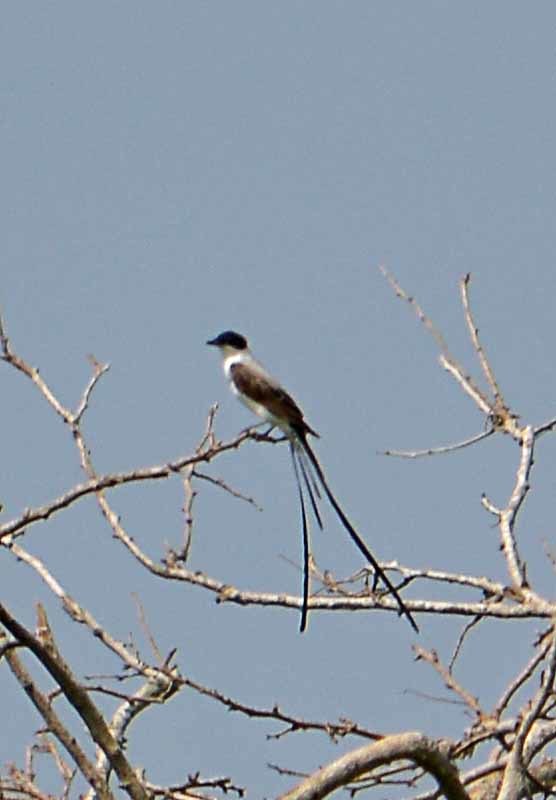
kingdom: Animalia
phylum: Chordata
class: Aves
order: Passeriformes
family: Tyrannidae
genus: Tyrannus
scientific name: Tyrannus savana
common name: Fork-tailed flycatcher
